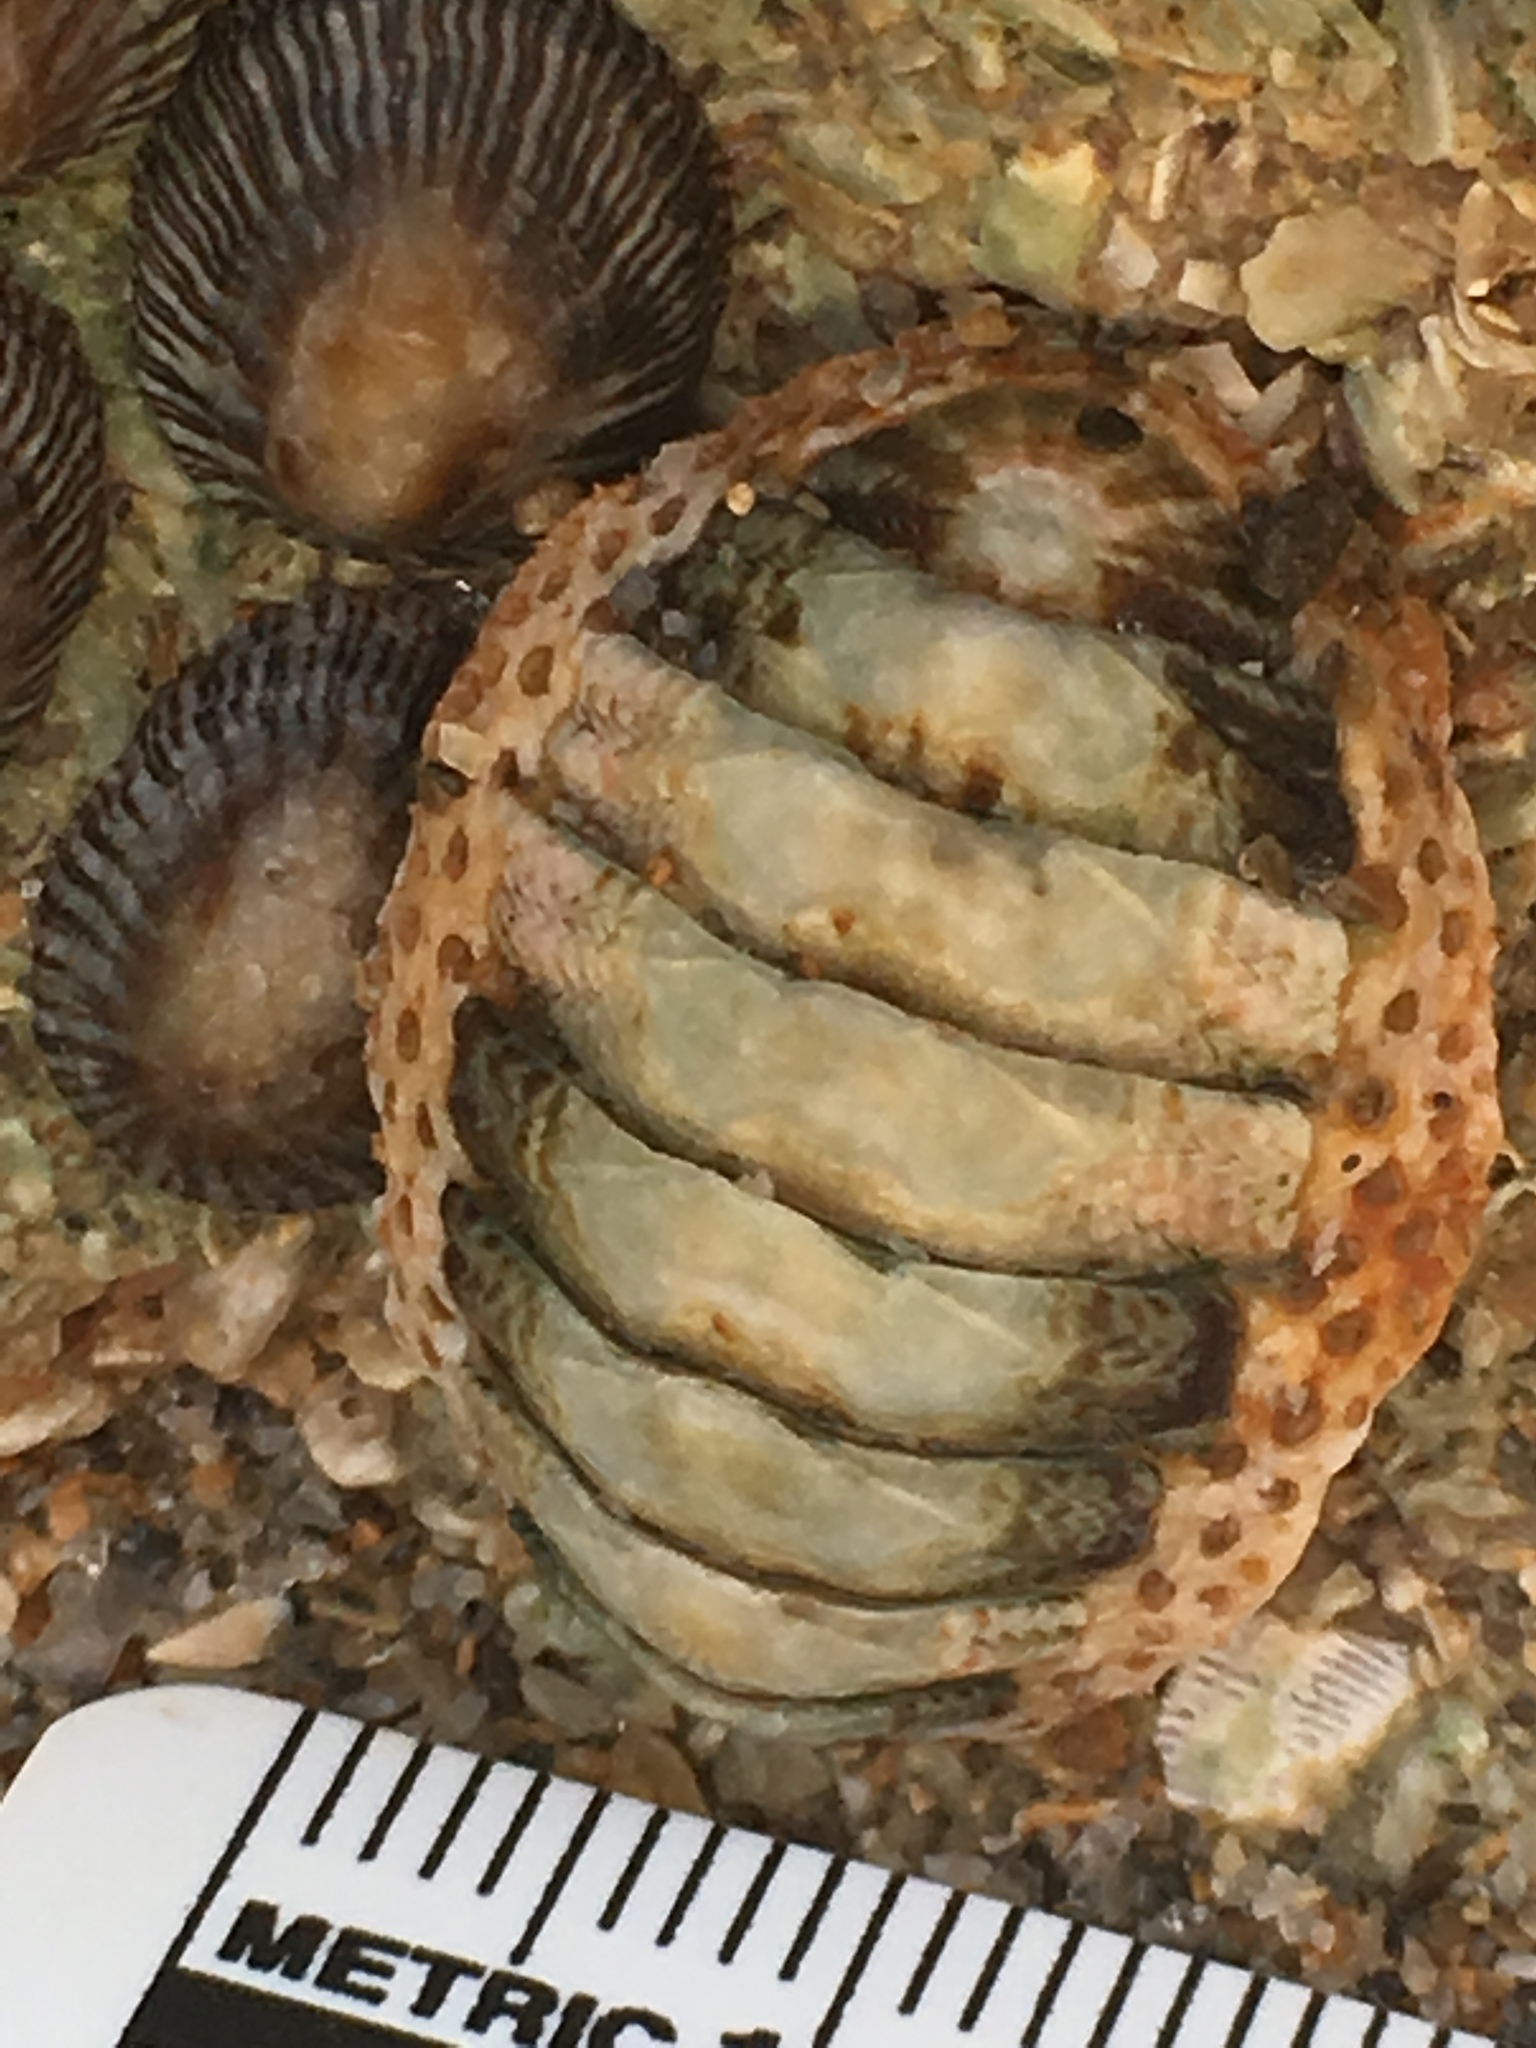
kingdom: Animalia
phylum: Mollusca
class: Polyplacophora
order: Chitonida
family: Chaetopleuridae
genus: Chaetopleura
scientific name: Chaetopleura apiculata
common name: Bee chiton
